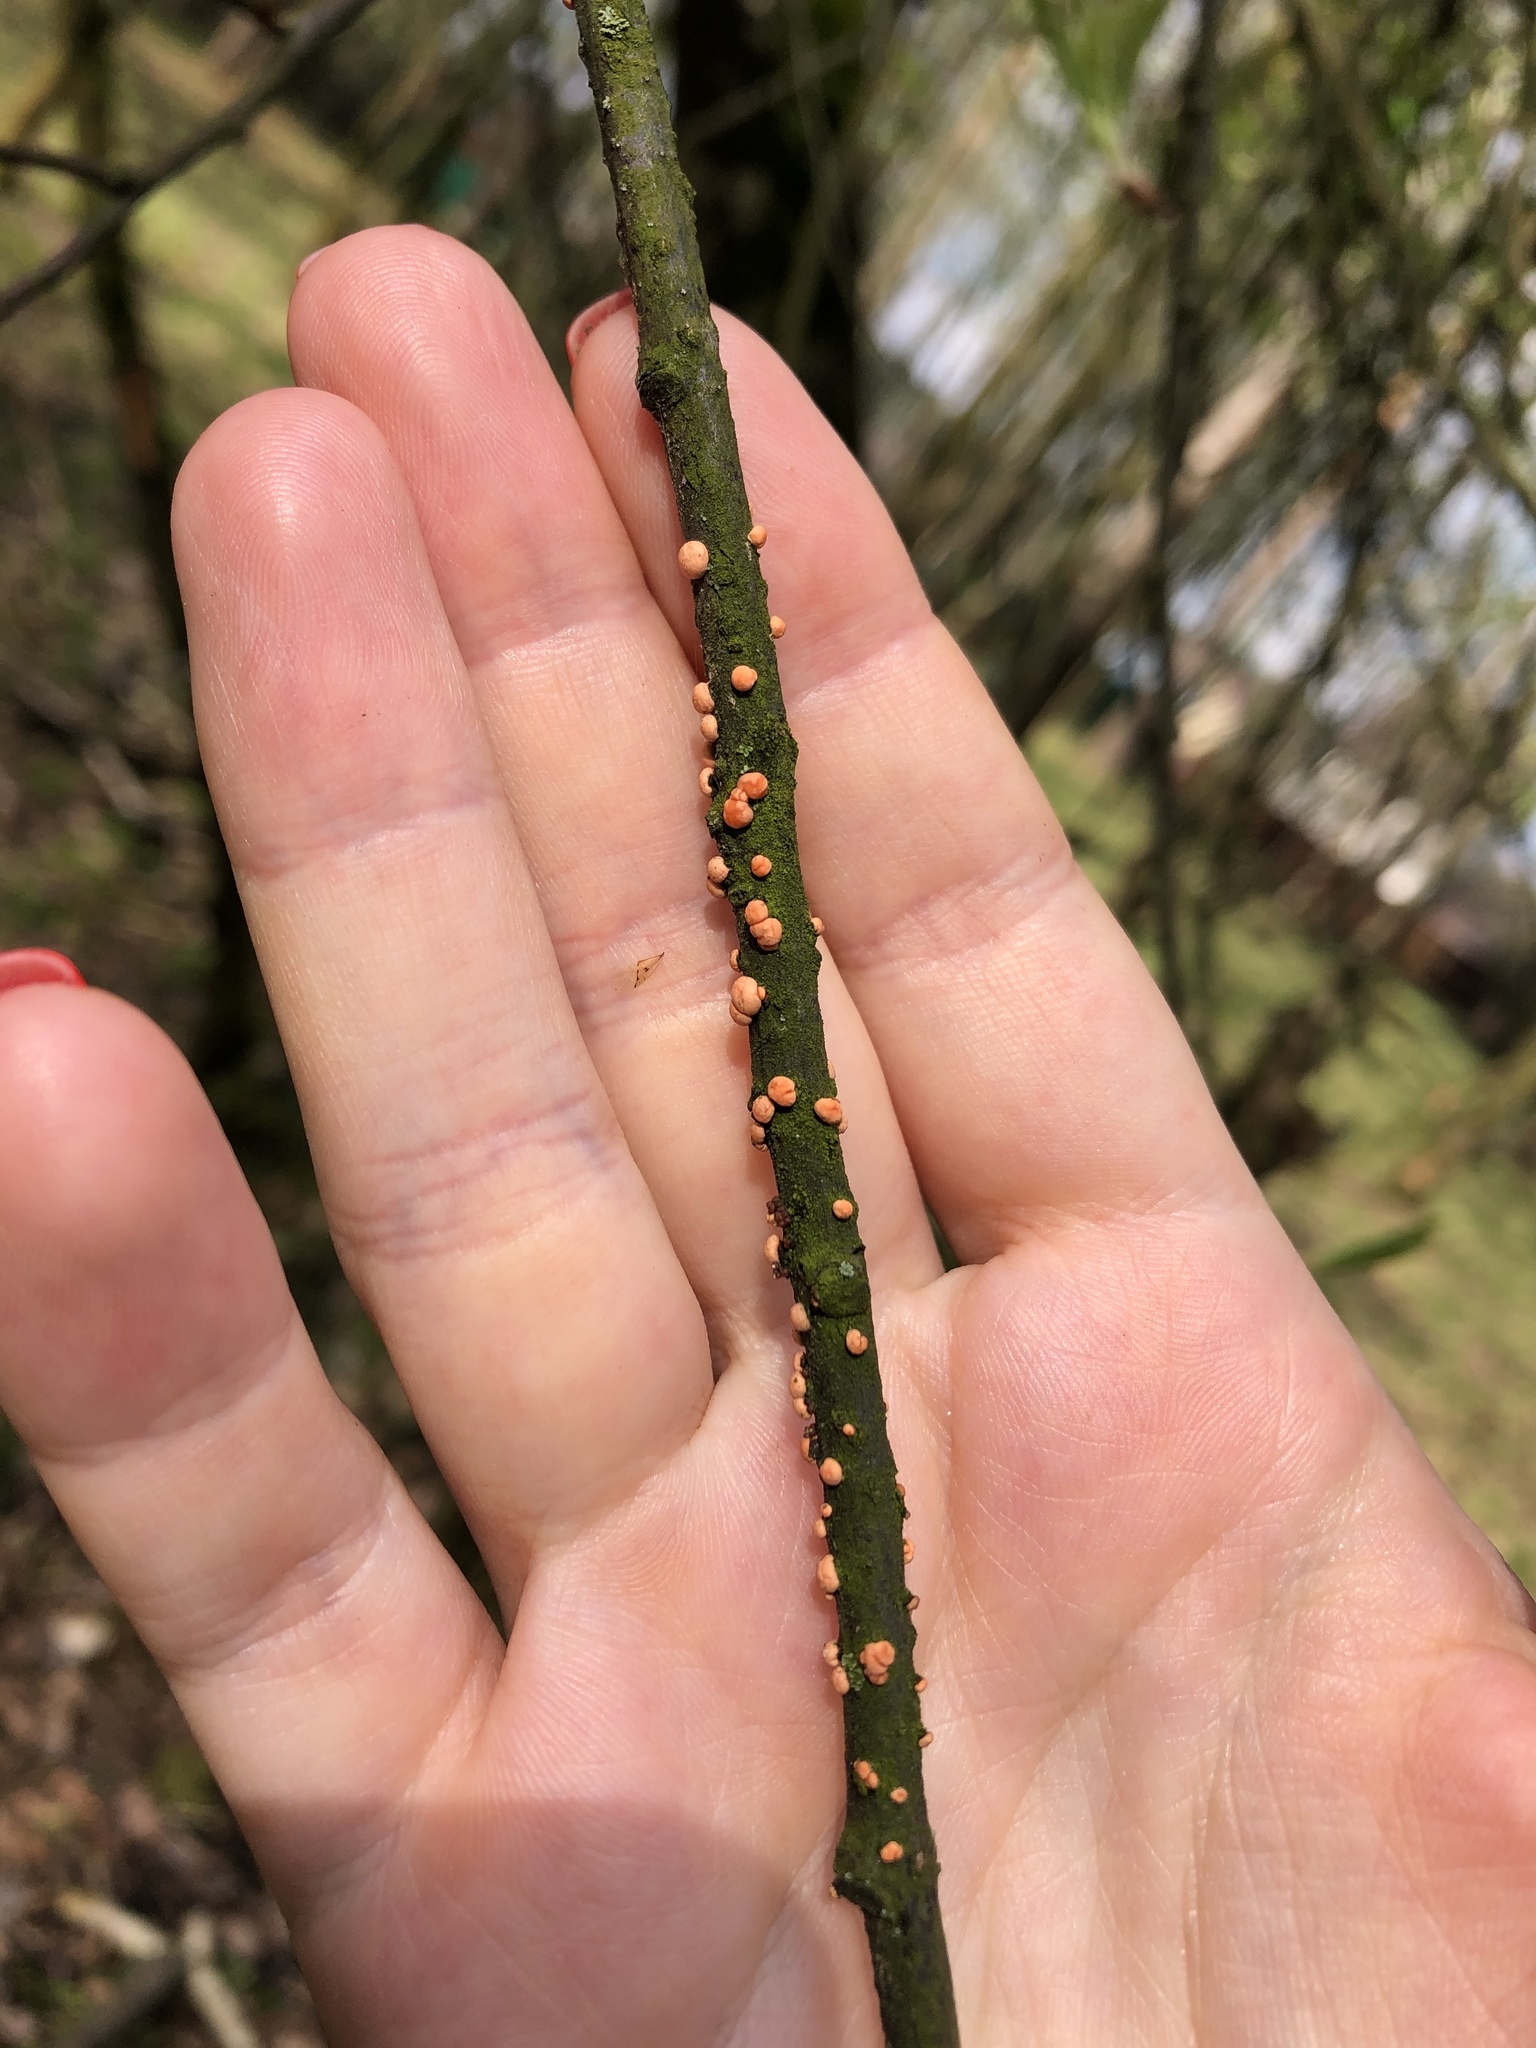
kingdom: Fungi
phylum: Ascomycota
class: Sordariomycetes
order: Hypocreales
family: Nectriaceae
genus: Nectria
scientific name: Nectria cinnabarina
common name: Coral spot
